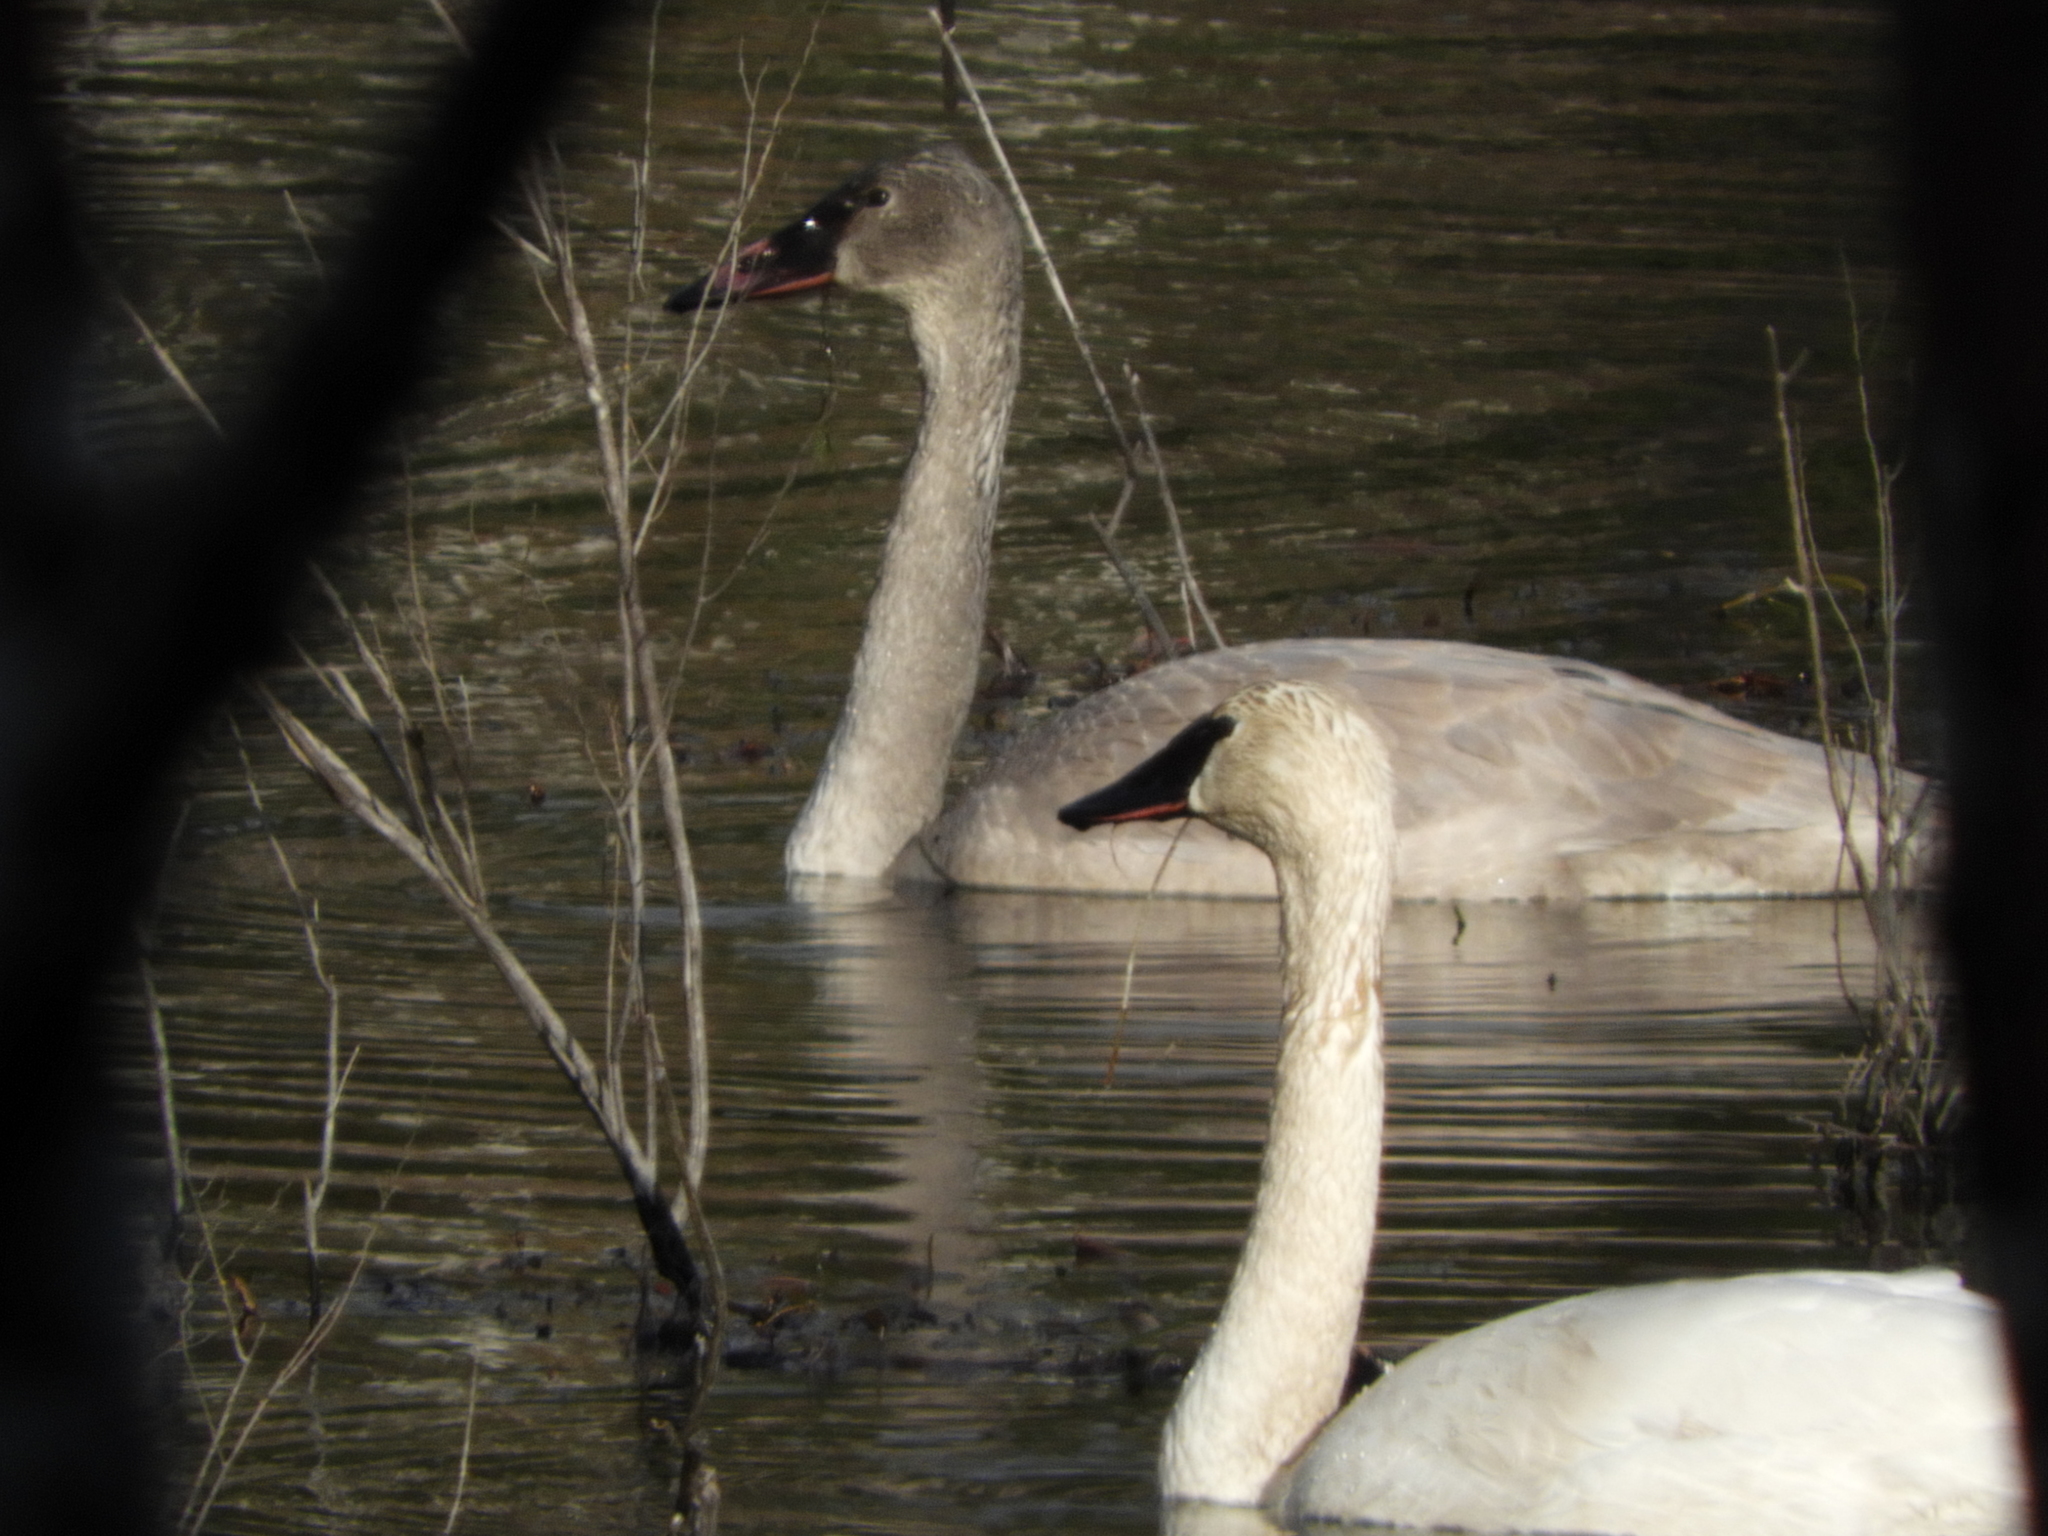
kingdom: Animalia
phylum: Chordata
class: Aves
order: Anseriformes
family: Anatidae
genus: Cygnus
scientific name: Cygnus buccinator
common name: Trumpeter swan
